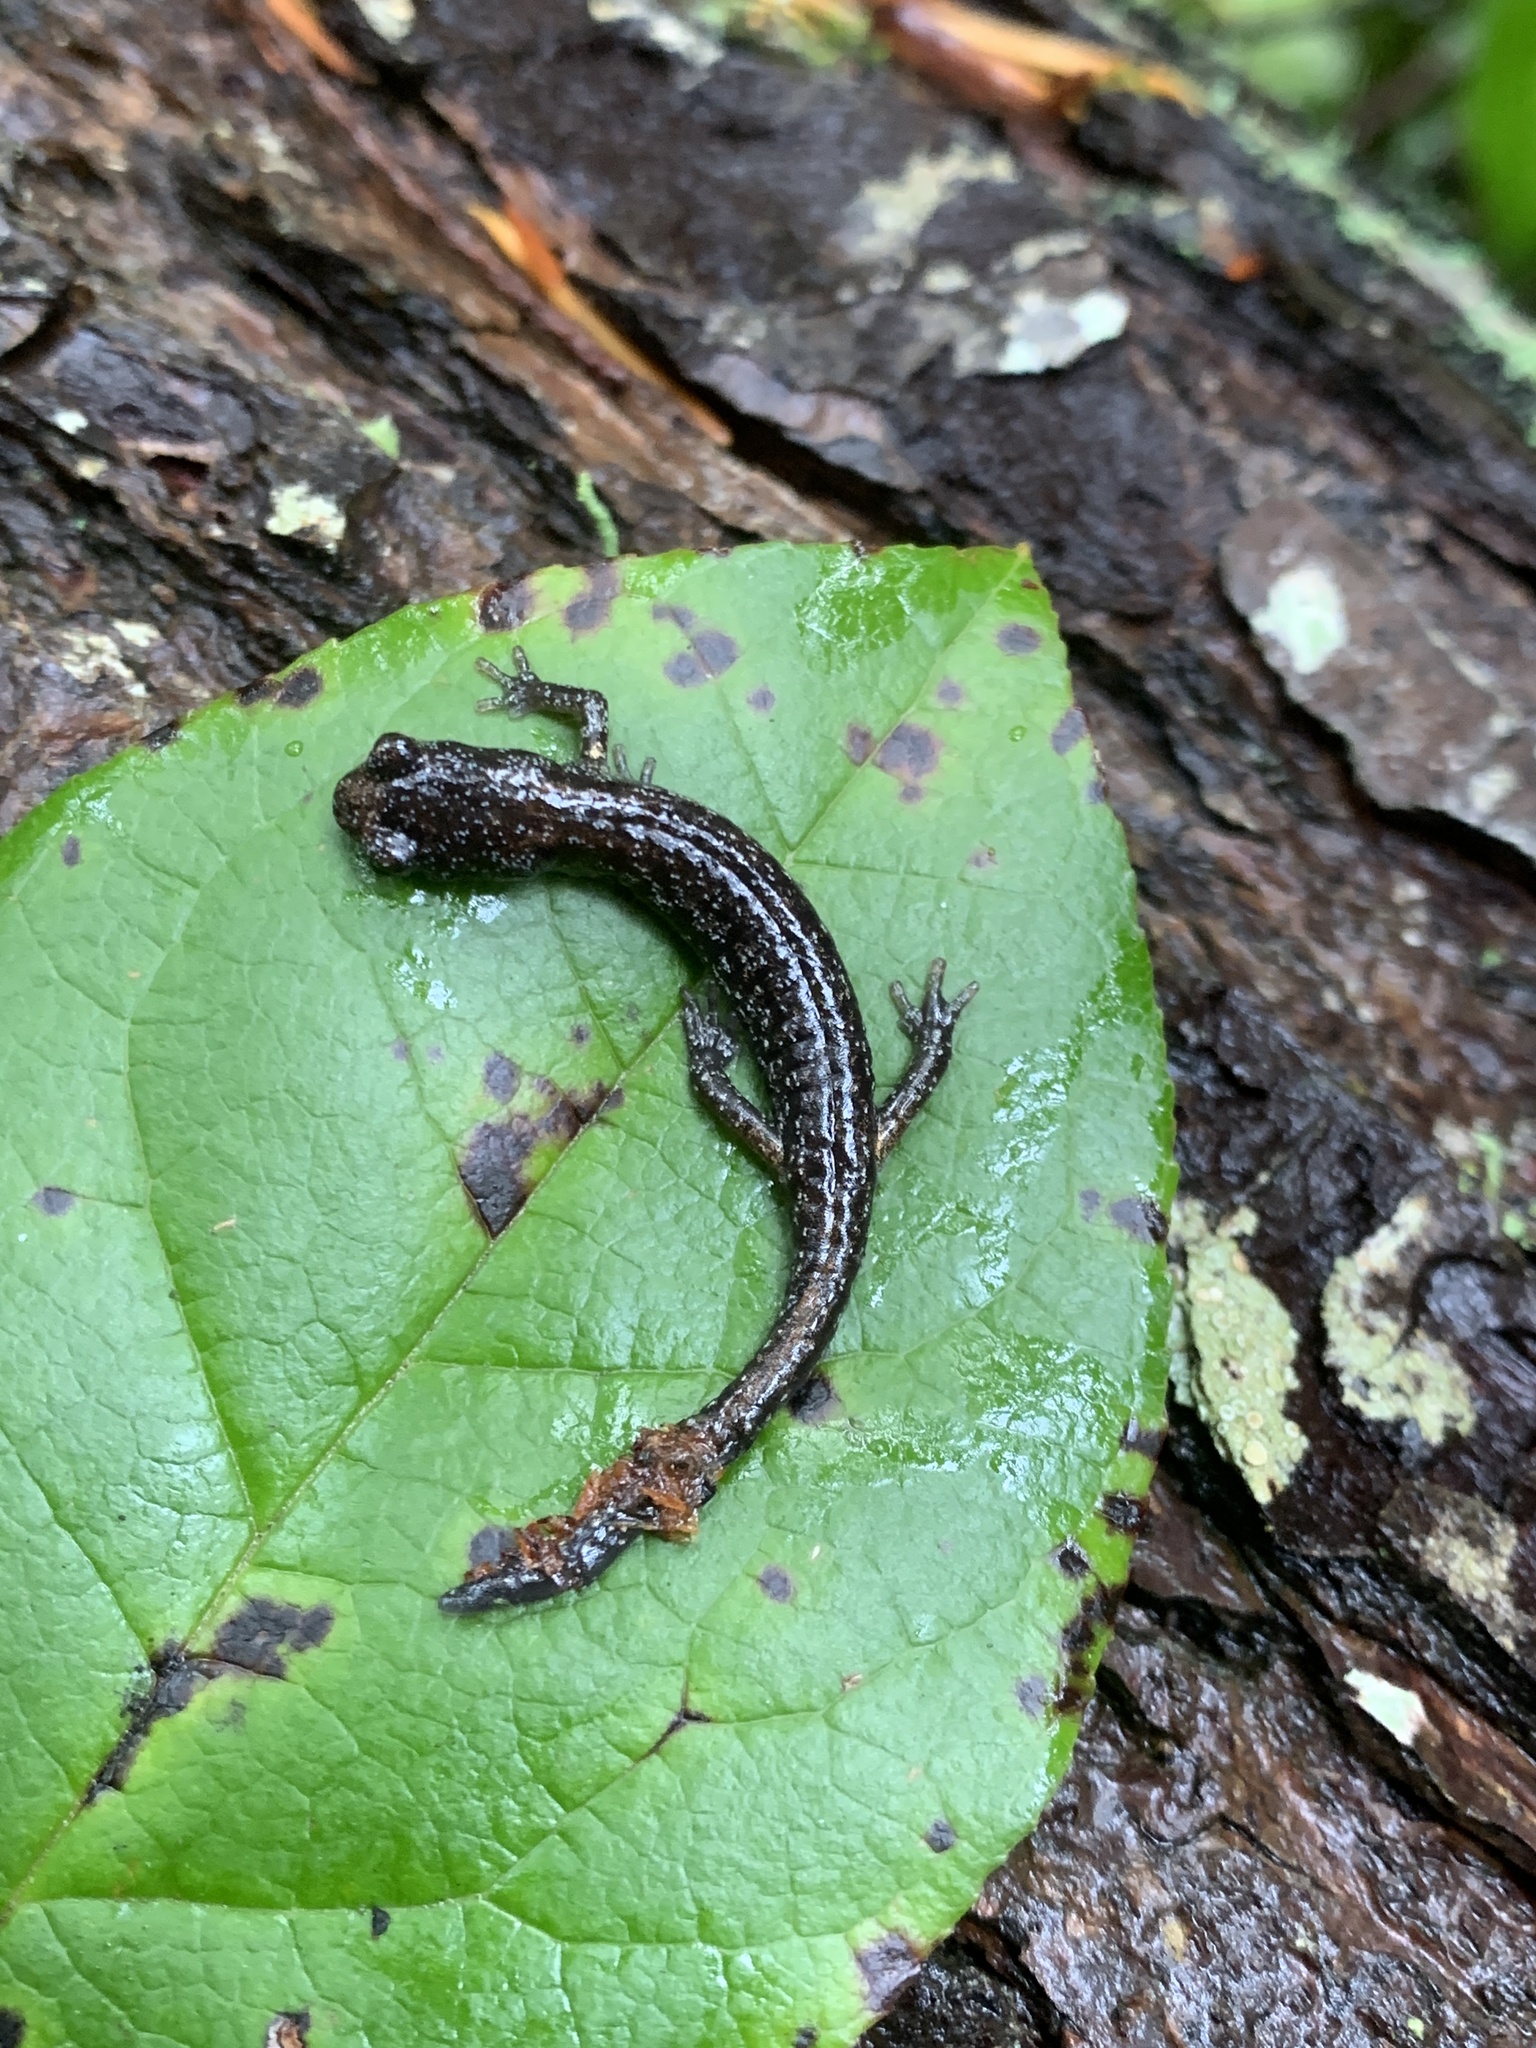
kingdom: Animalia
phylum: Chordata
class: Amphibia
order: Caudata
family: Plethodontidae
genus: Aneides
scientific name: Aneides vagrans
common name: Wandering salamander
